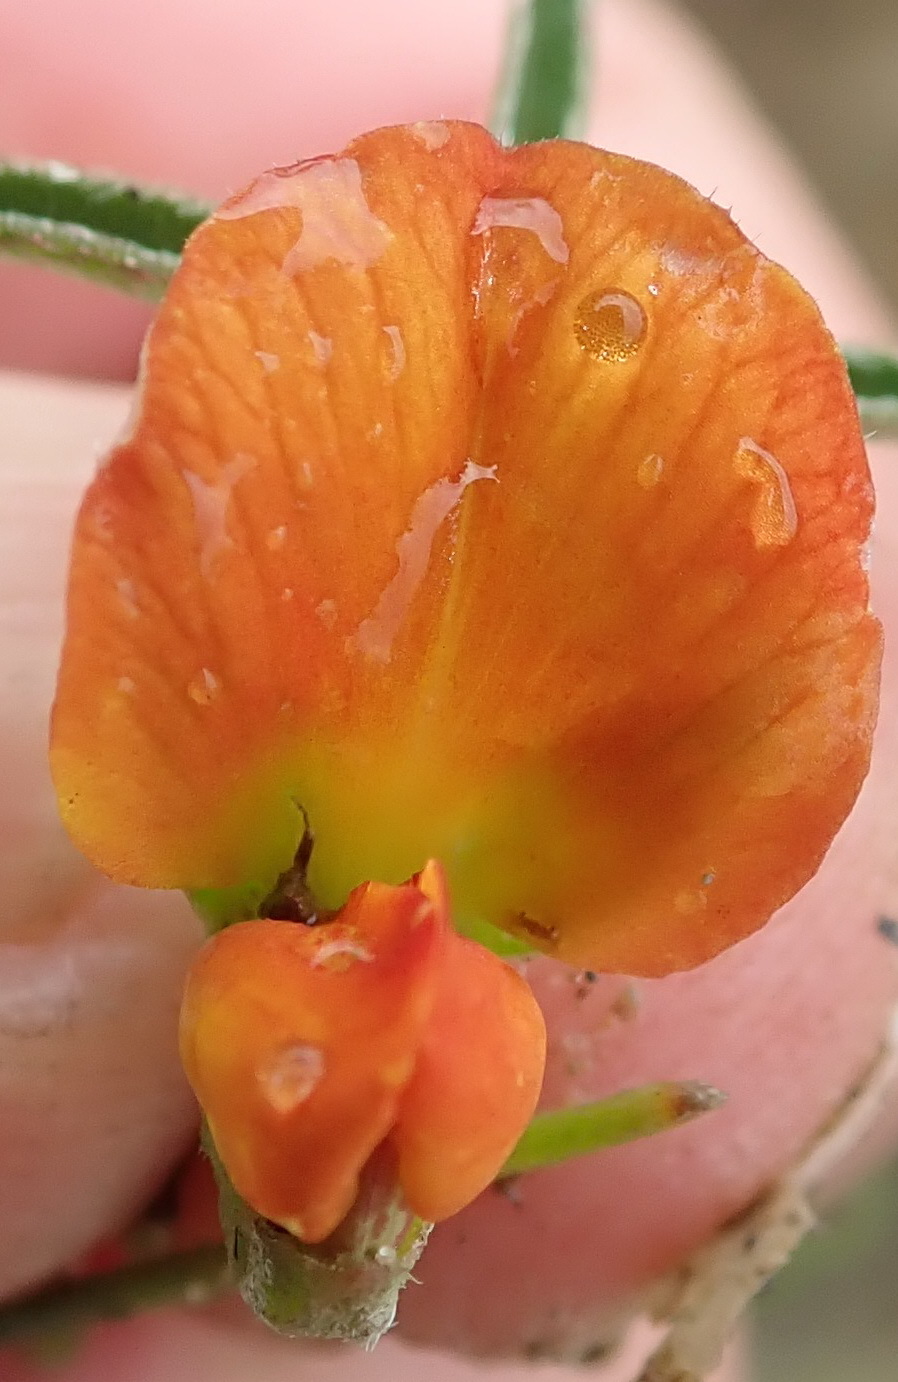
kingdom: Plantae
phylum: Tracheophyta
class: Magnoliopsida
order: Fabales
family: Fabaceae
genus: Argyrolobium
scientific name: Argyrolobium rarum
